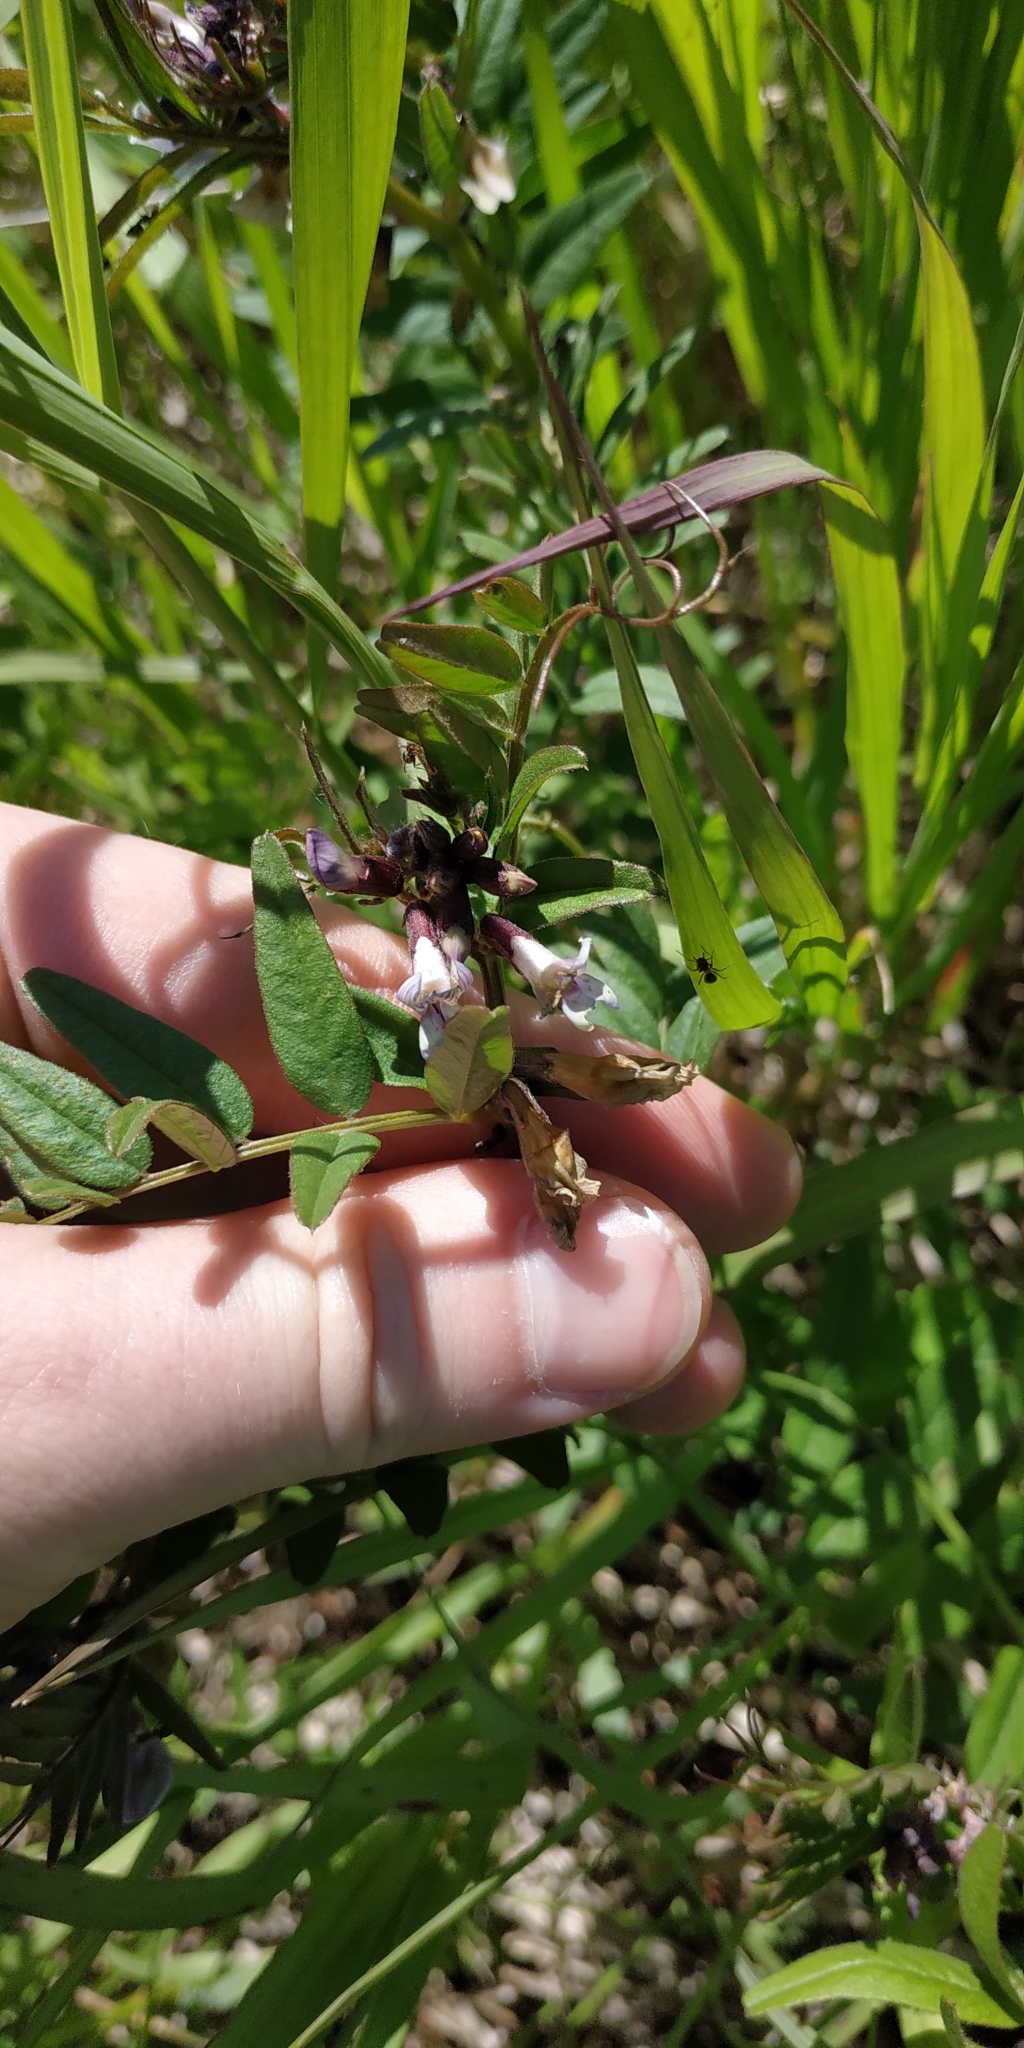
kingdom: Plantae
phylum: Tracheophyta
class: Magnoliopsida
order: Fabales
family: Fabaceae
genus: Vicia
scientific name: Vicia sepium
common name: Bush vetch
